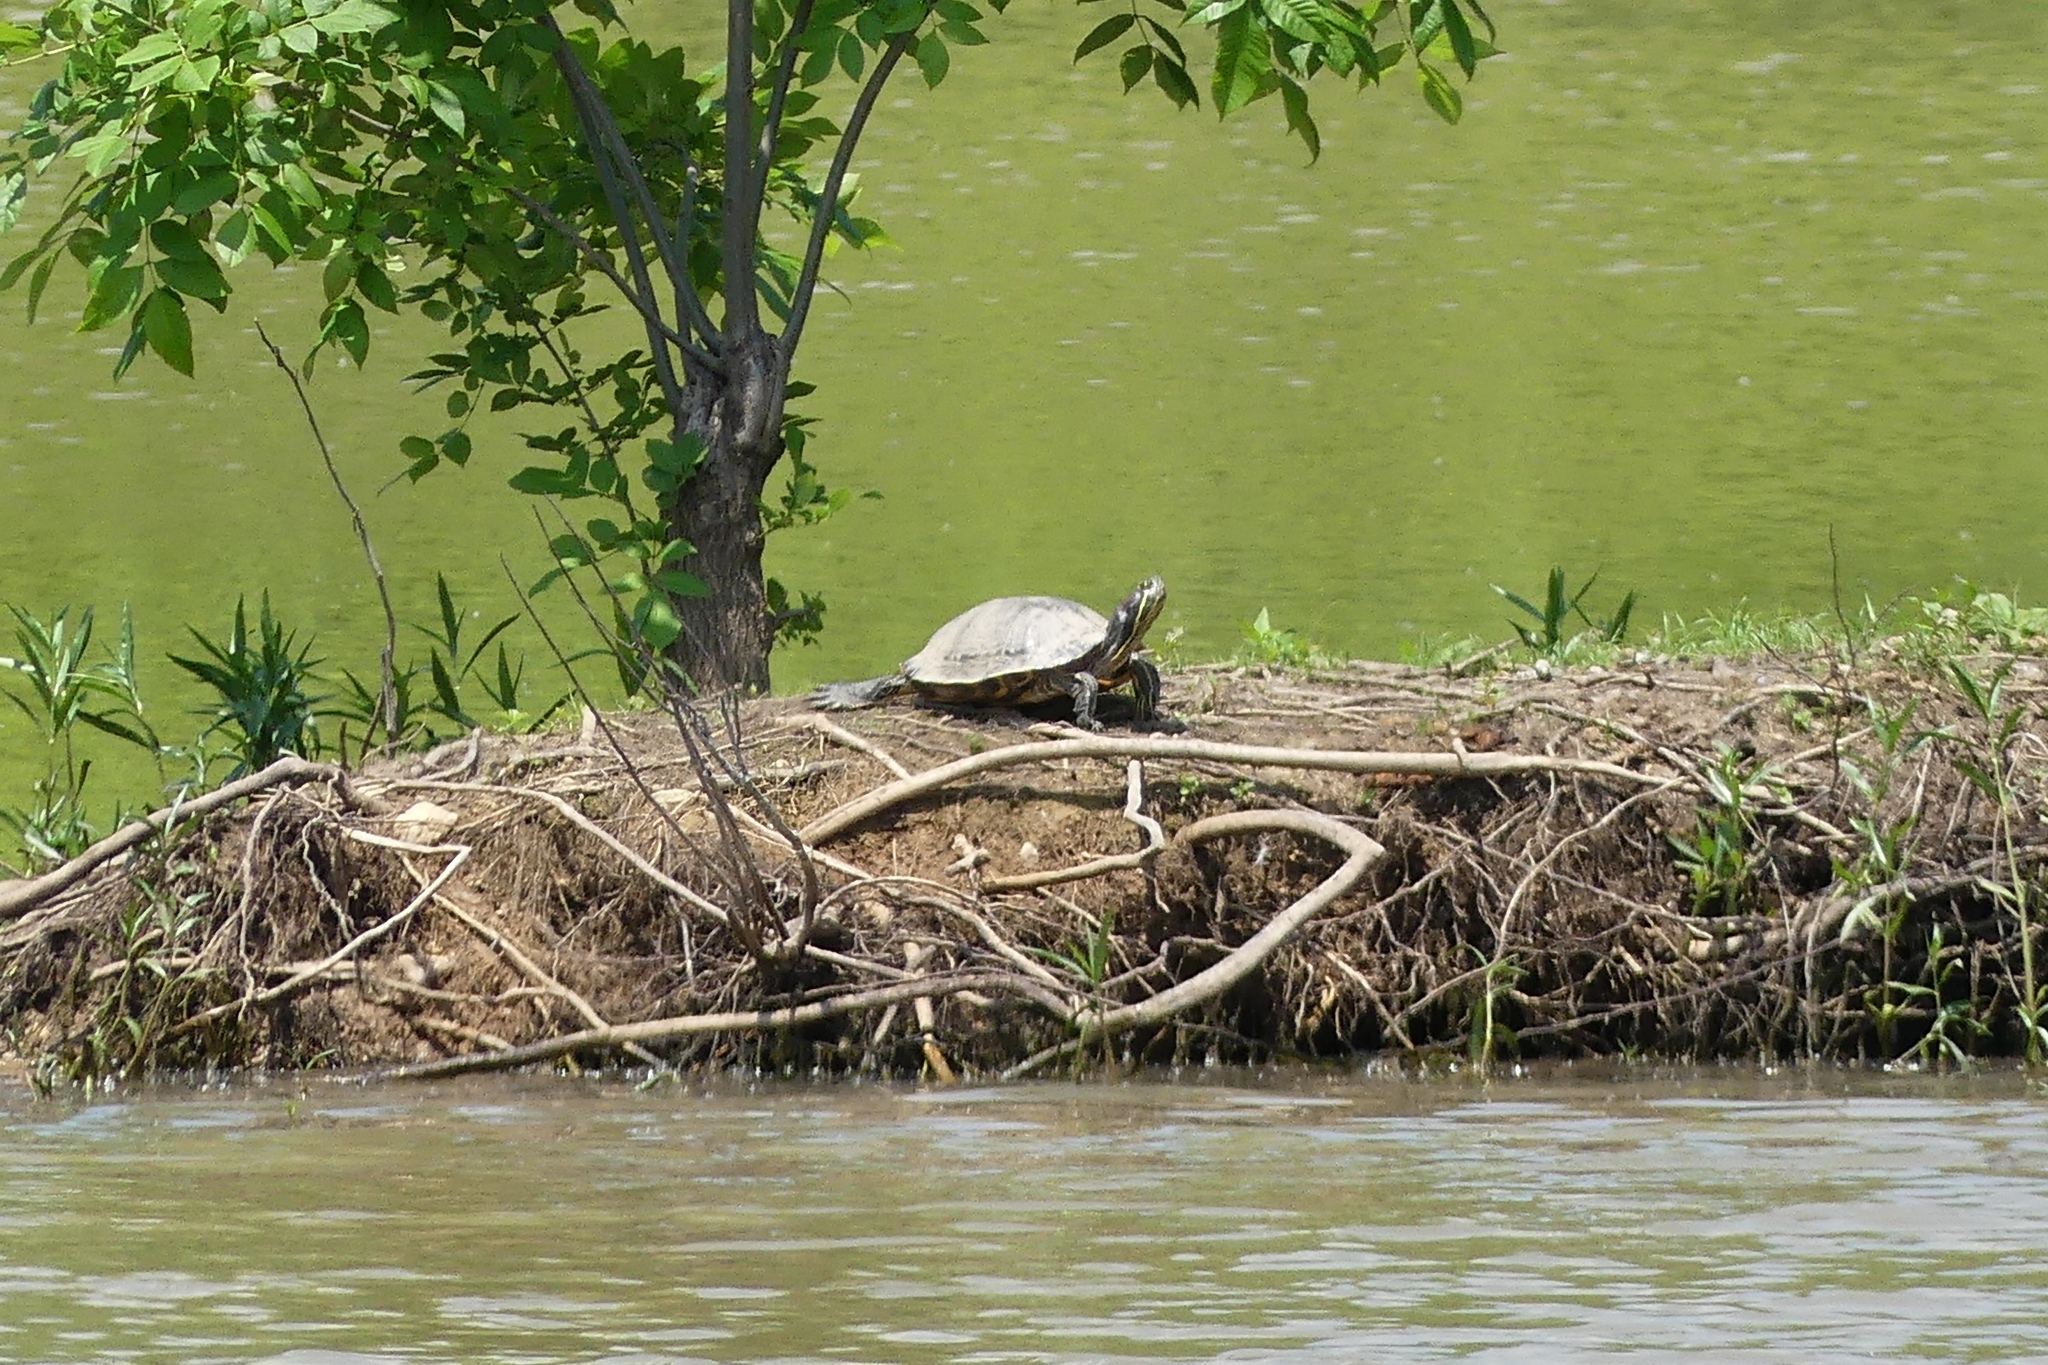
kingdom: Animalia
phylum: Chordata
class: Testudines
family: Emydidae
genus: Trachemys
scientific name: Trachemys scripta
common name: Slider
